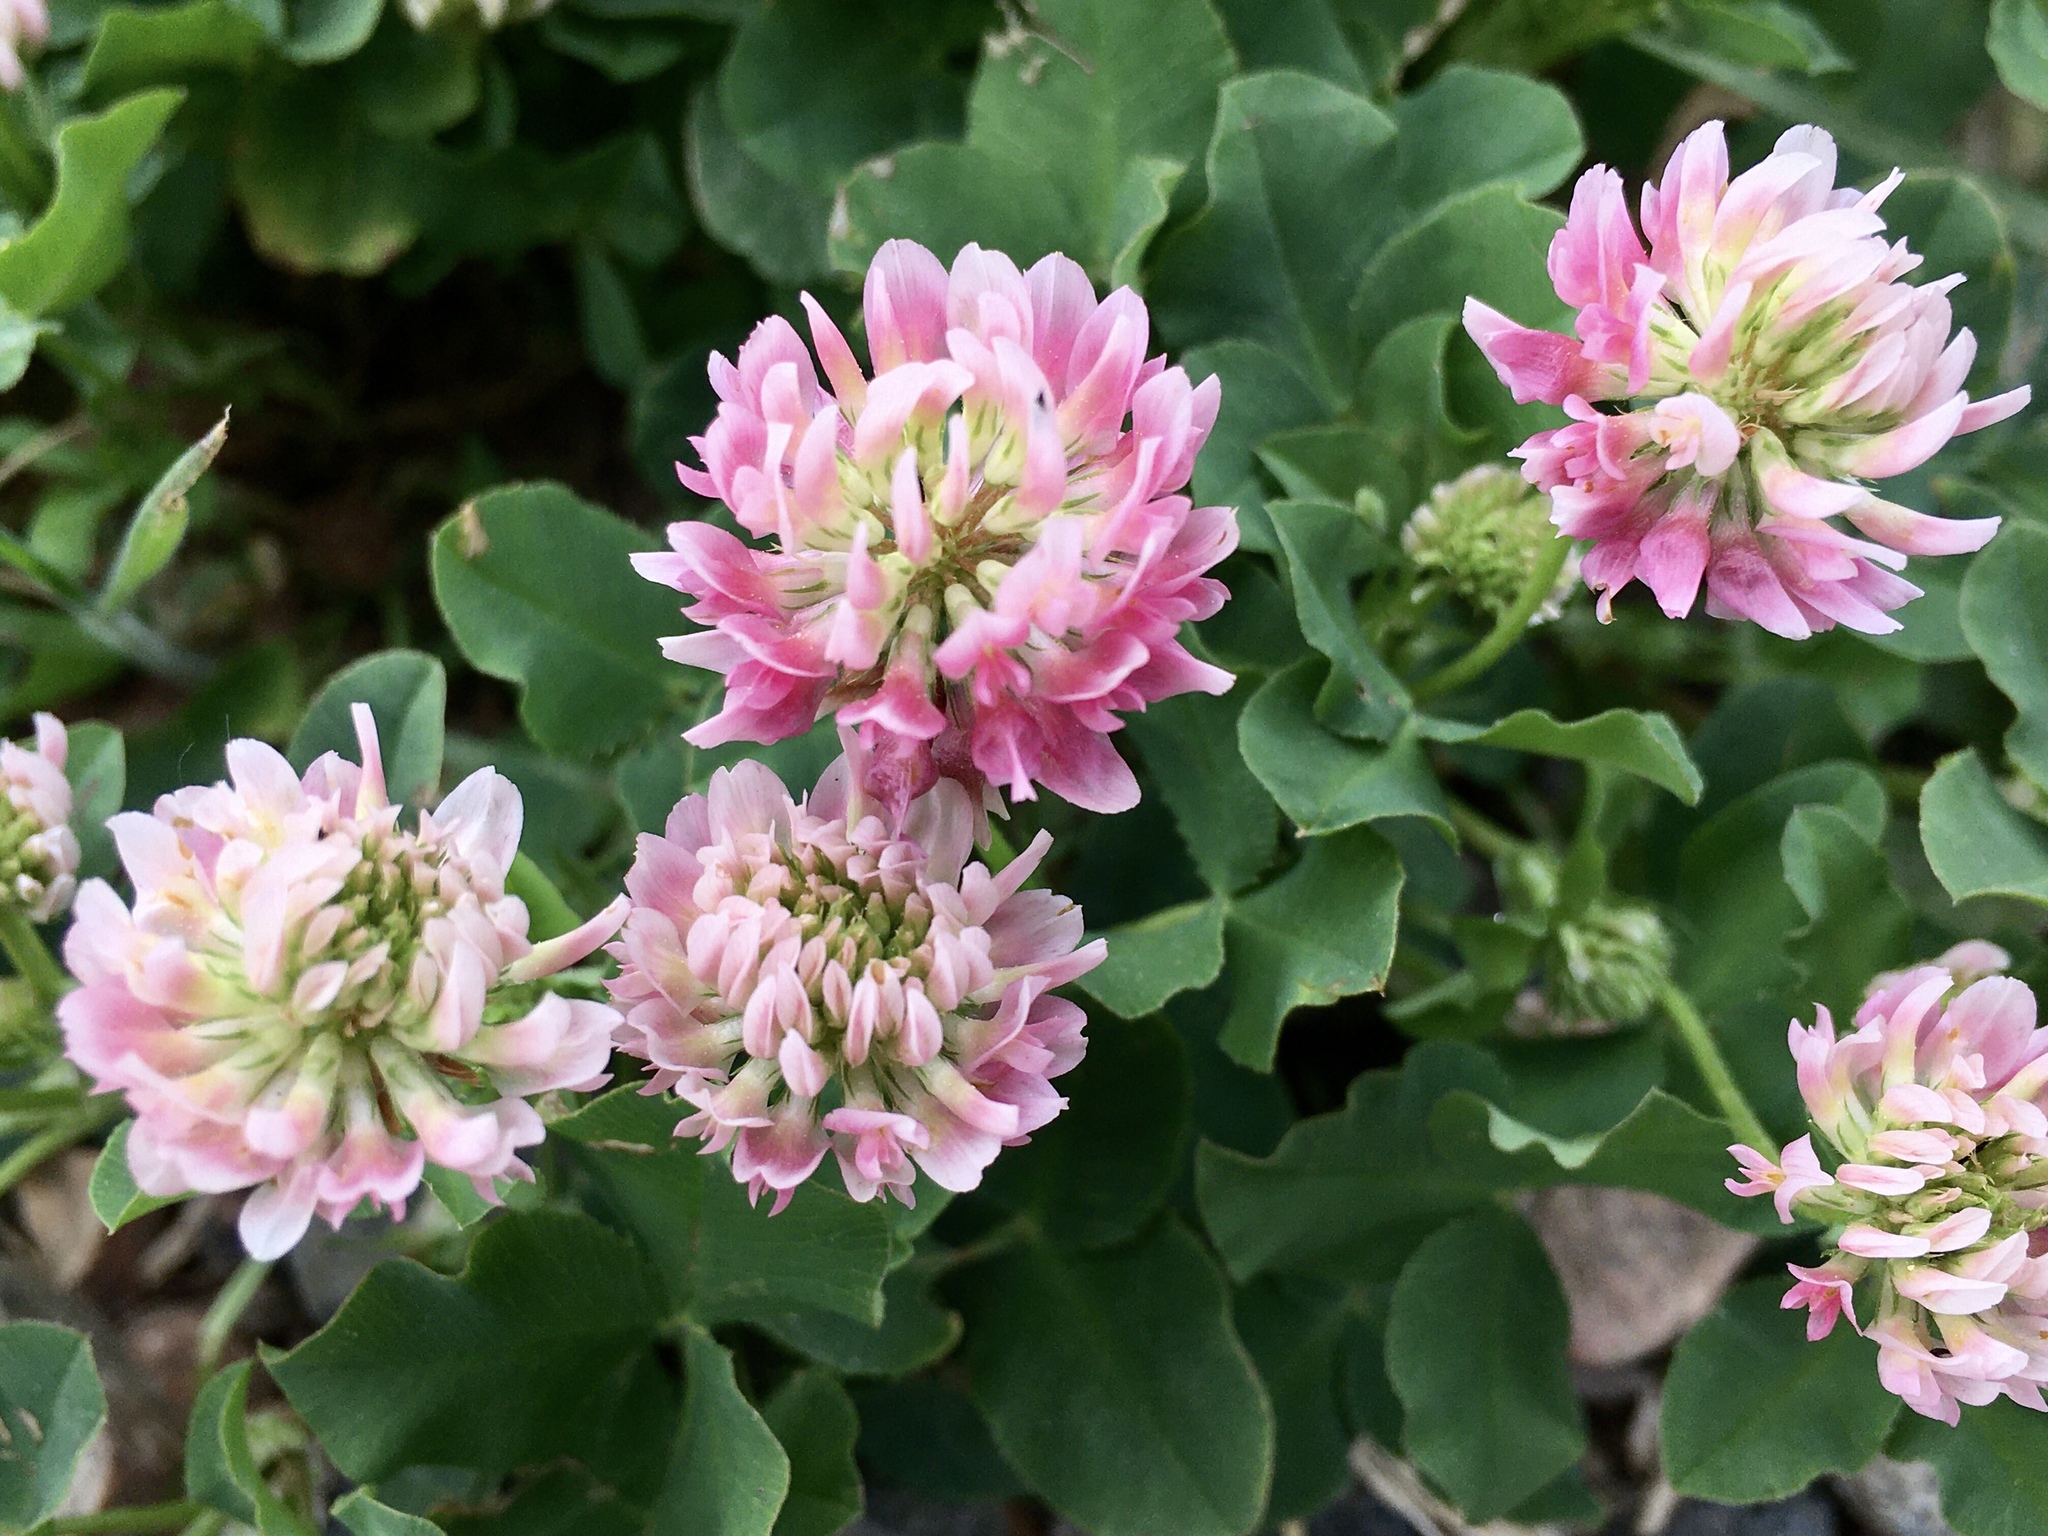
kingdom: Plantae
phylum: Tracheophyta
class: Magnoliopsida
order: Fabales
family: Fabaceae
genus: Trifolium
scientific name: Trifolium hybridum
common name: Alsike clover
